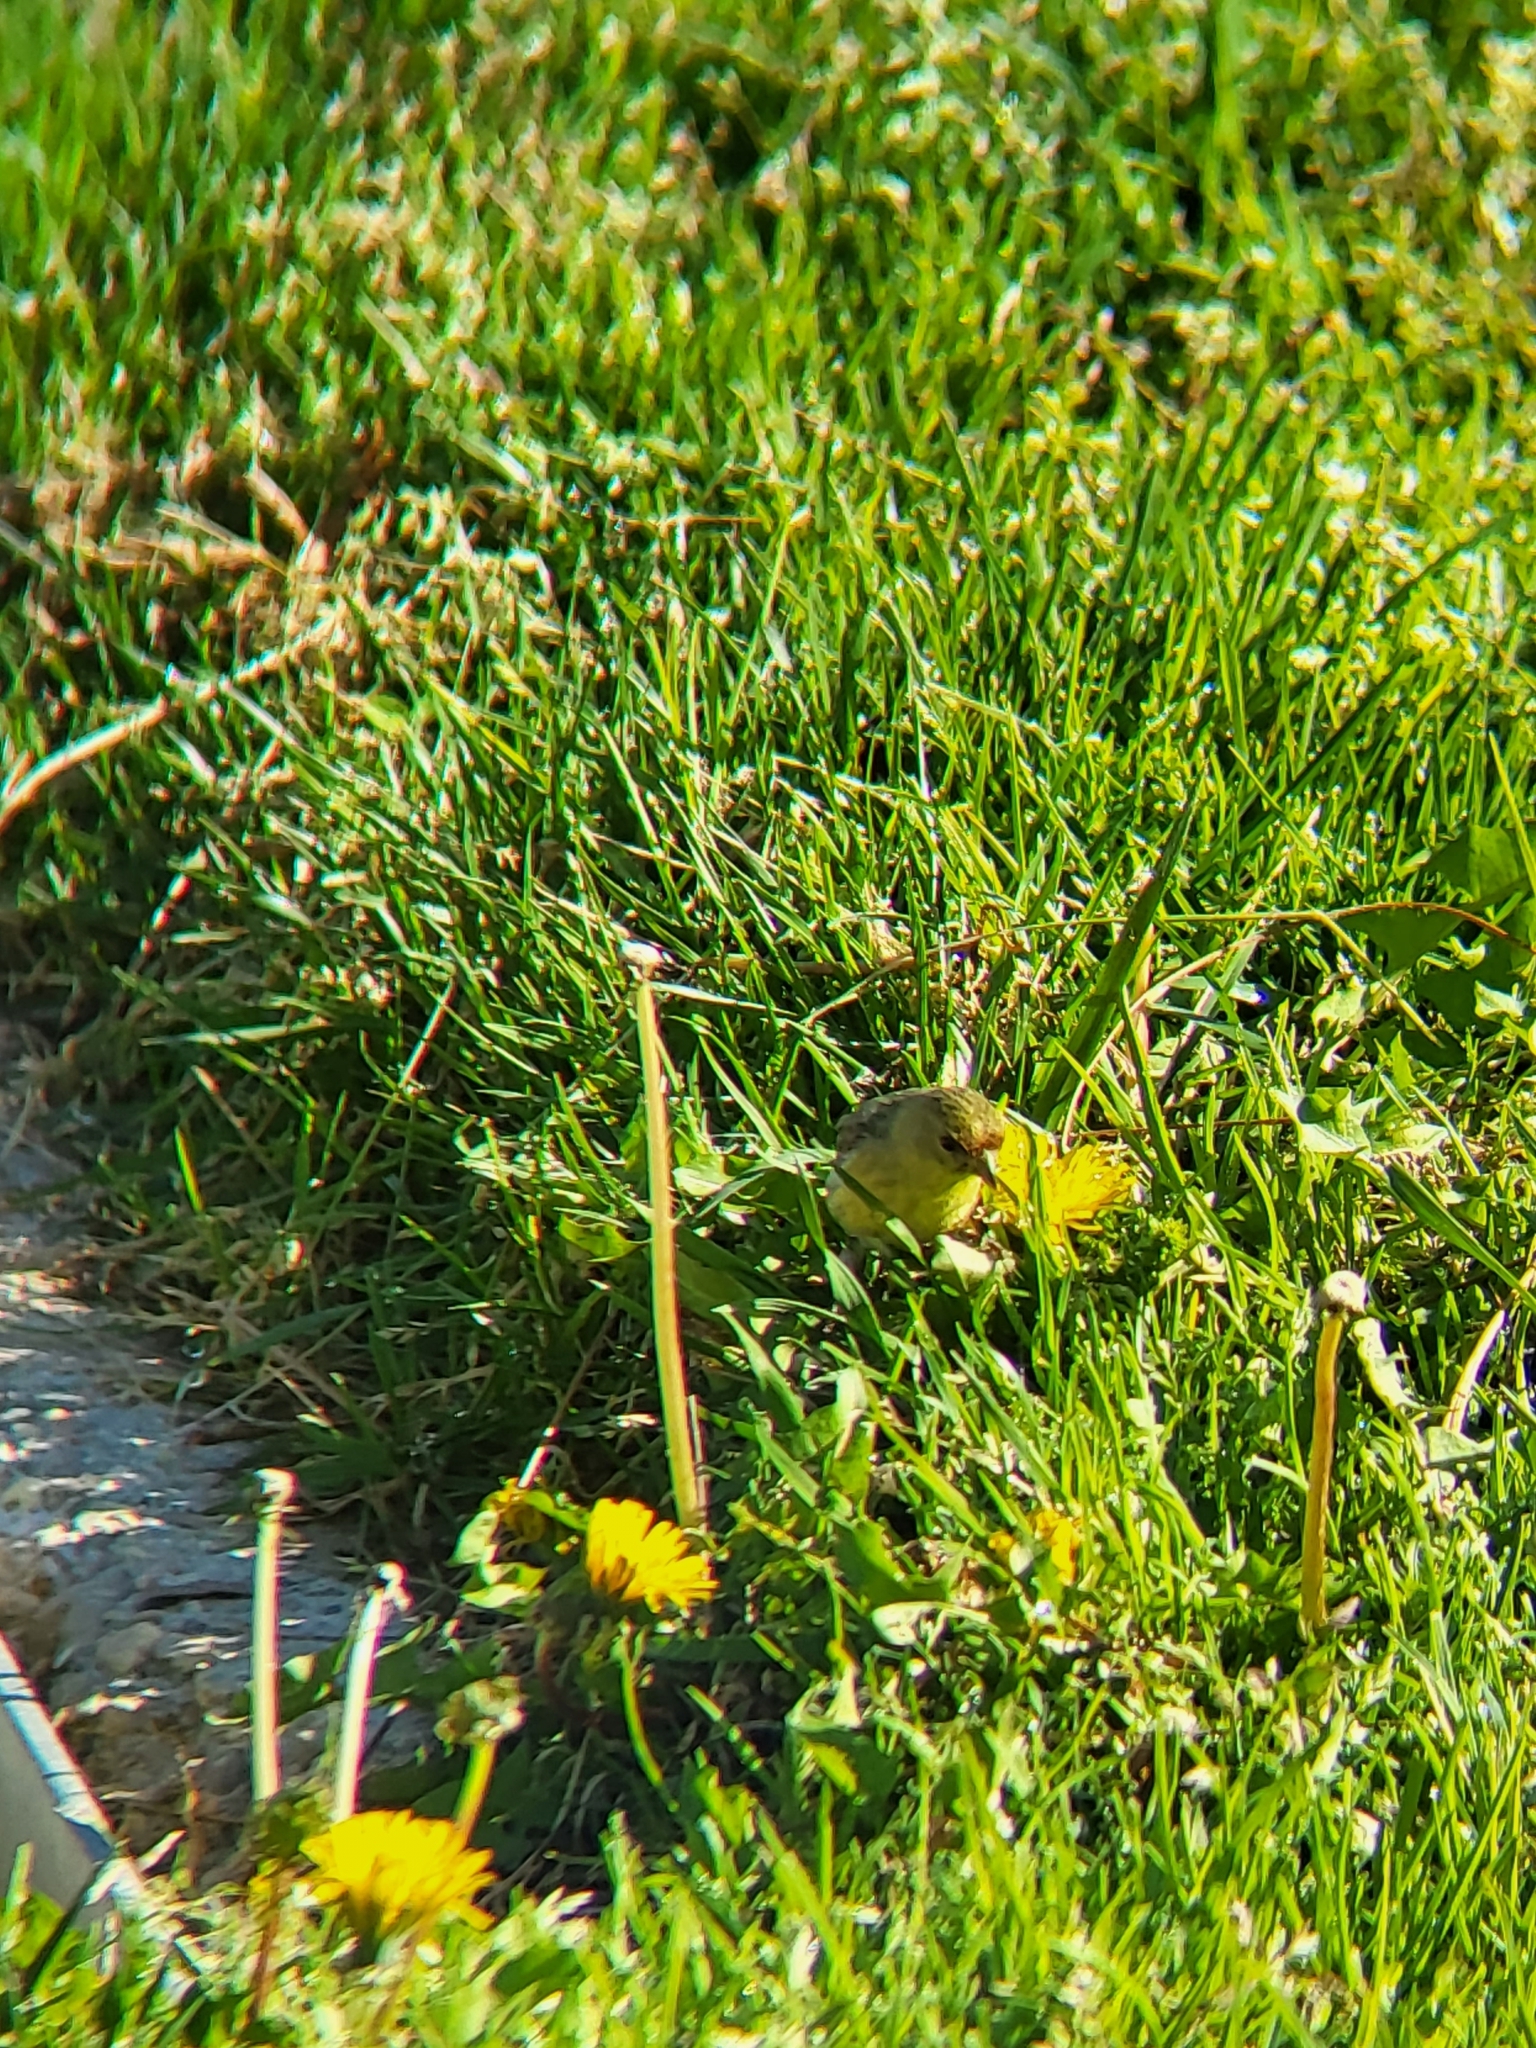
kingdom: Animalia
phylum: Chordata
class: Aves
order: Passeriformes
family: Fringillidae
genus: Spinus
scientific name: Spinus psaltria
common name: Lesser goldfinch
